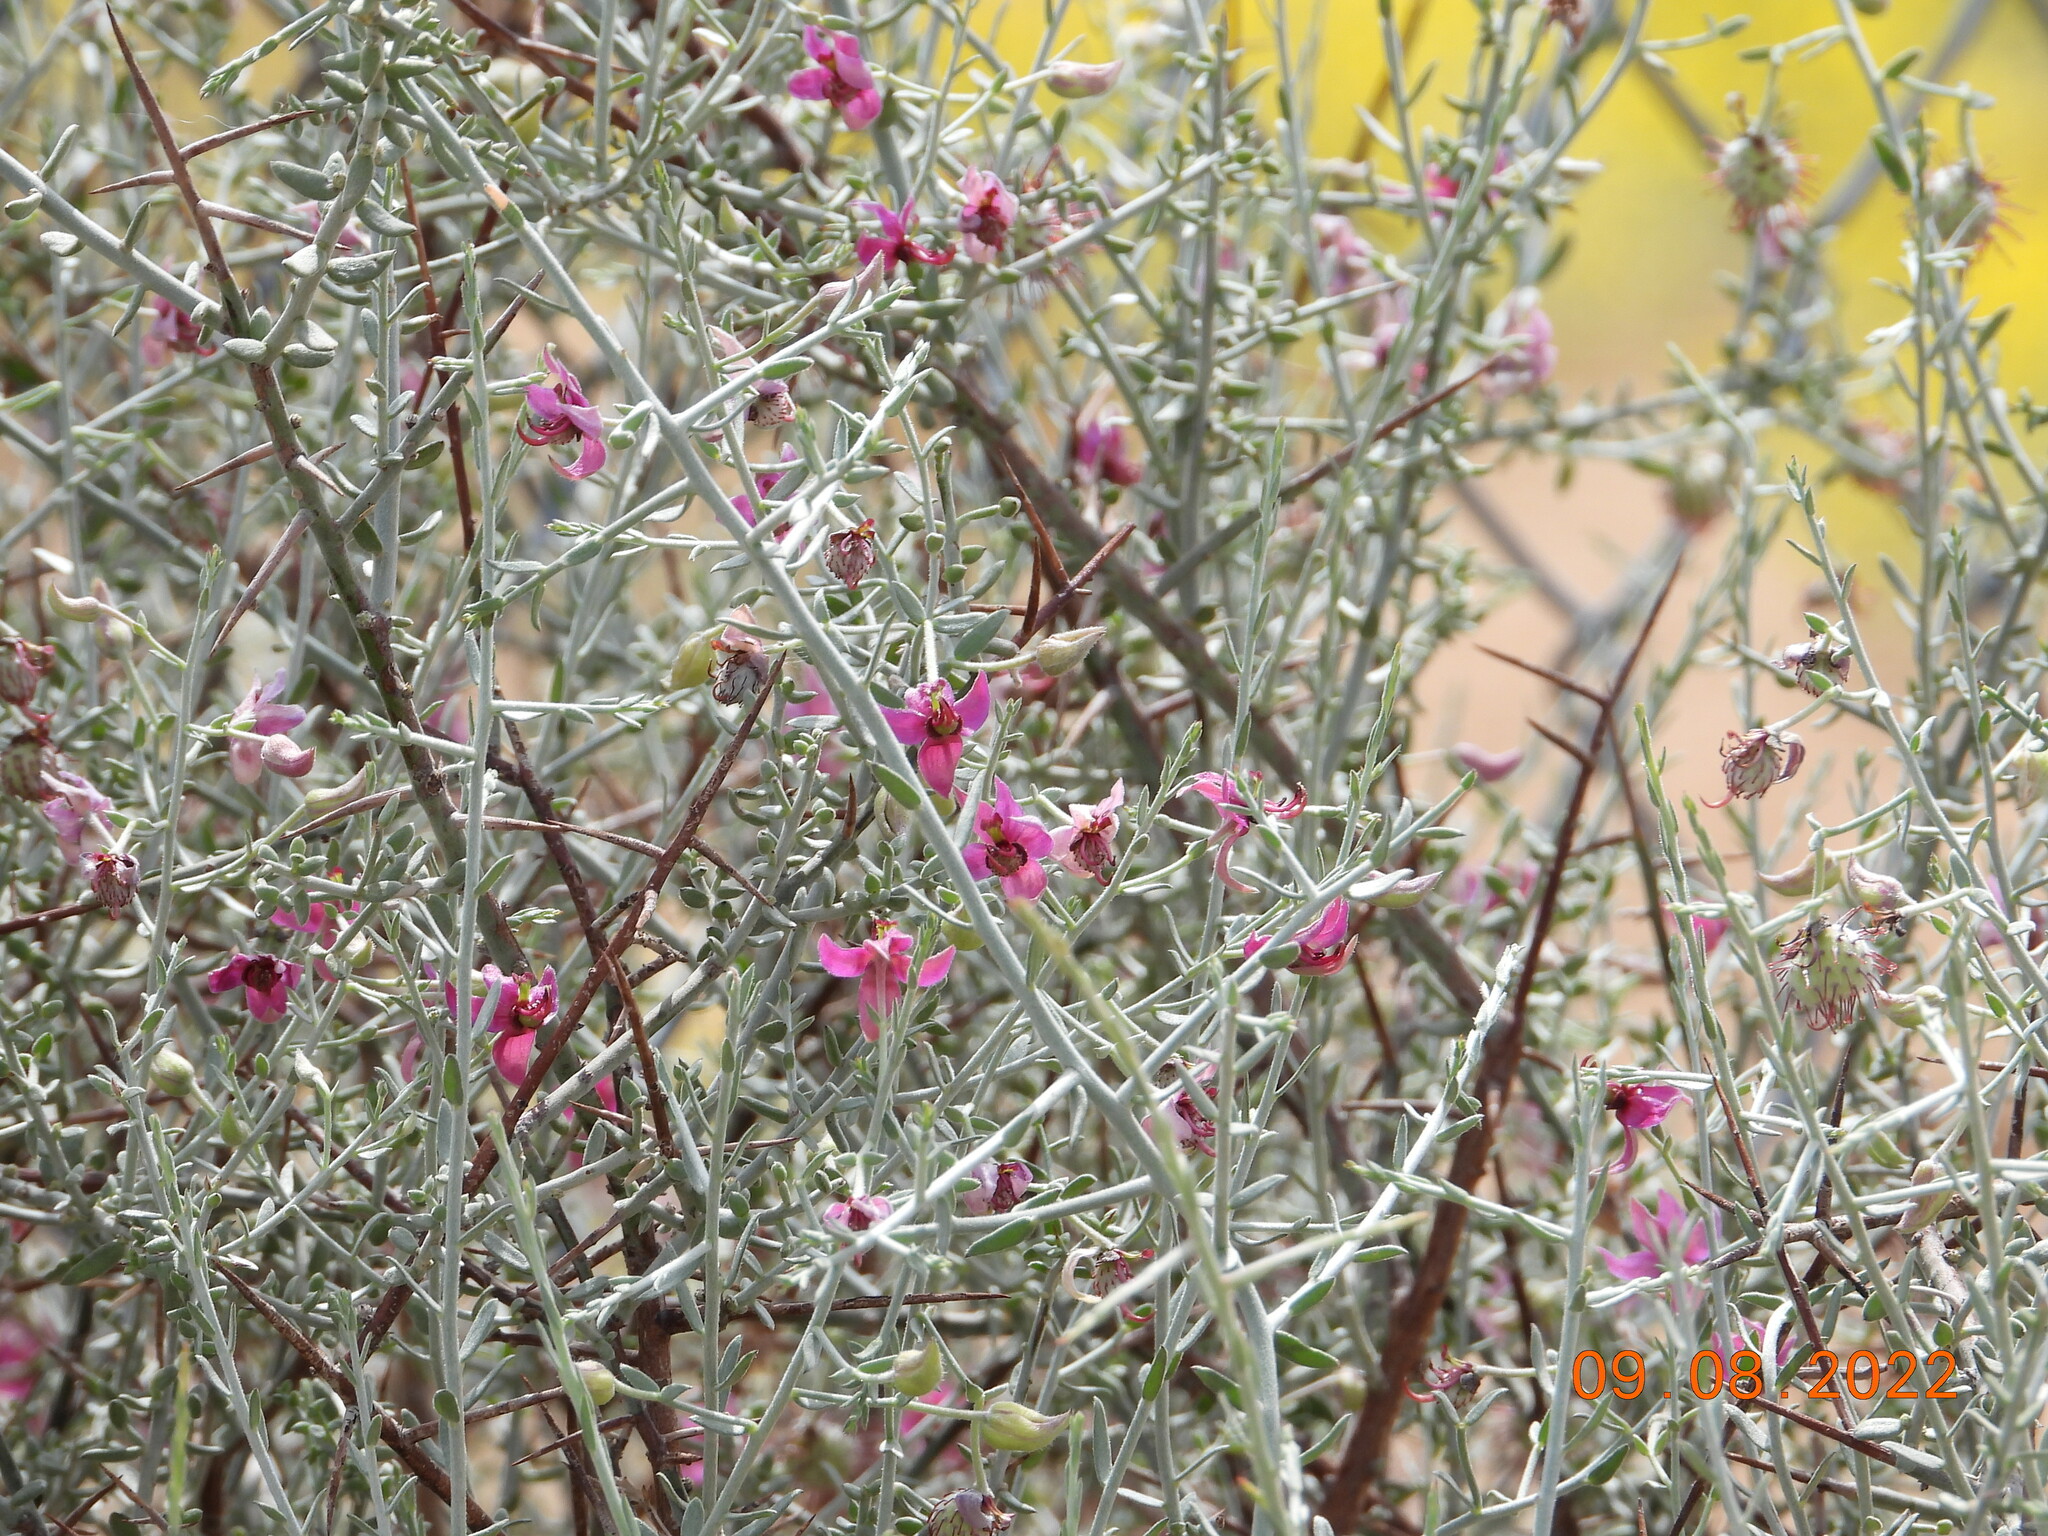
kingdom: Plantae
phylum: Tracheophyta
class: Magnoliopsida
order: Zygophyllales
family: Krameriaceae
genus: Krameria
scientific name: Krameria bicolor
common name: White ratany
